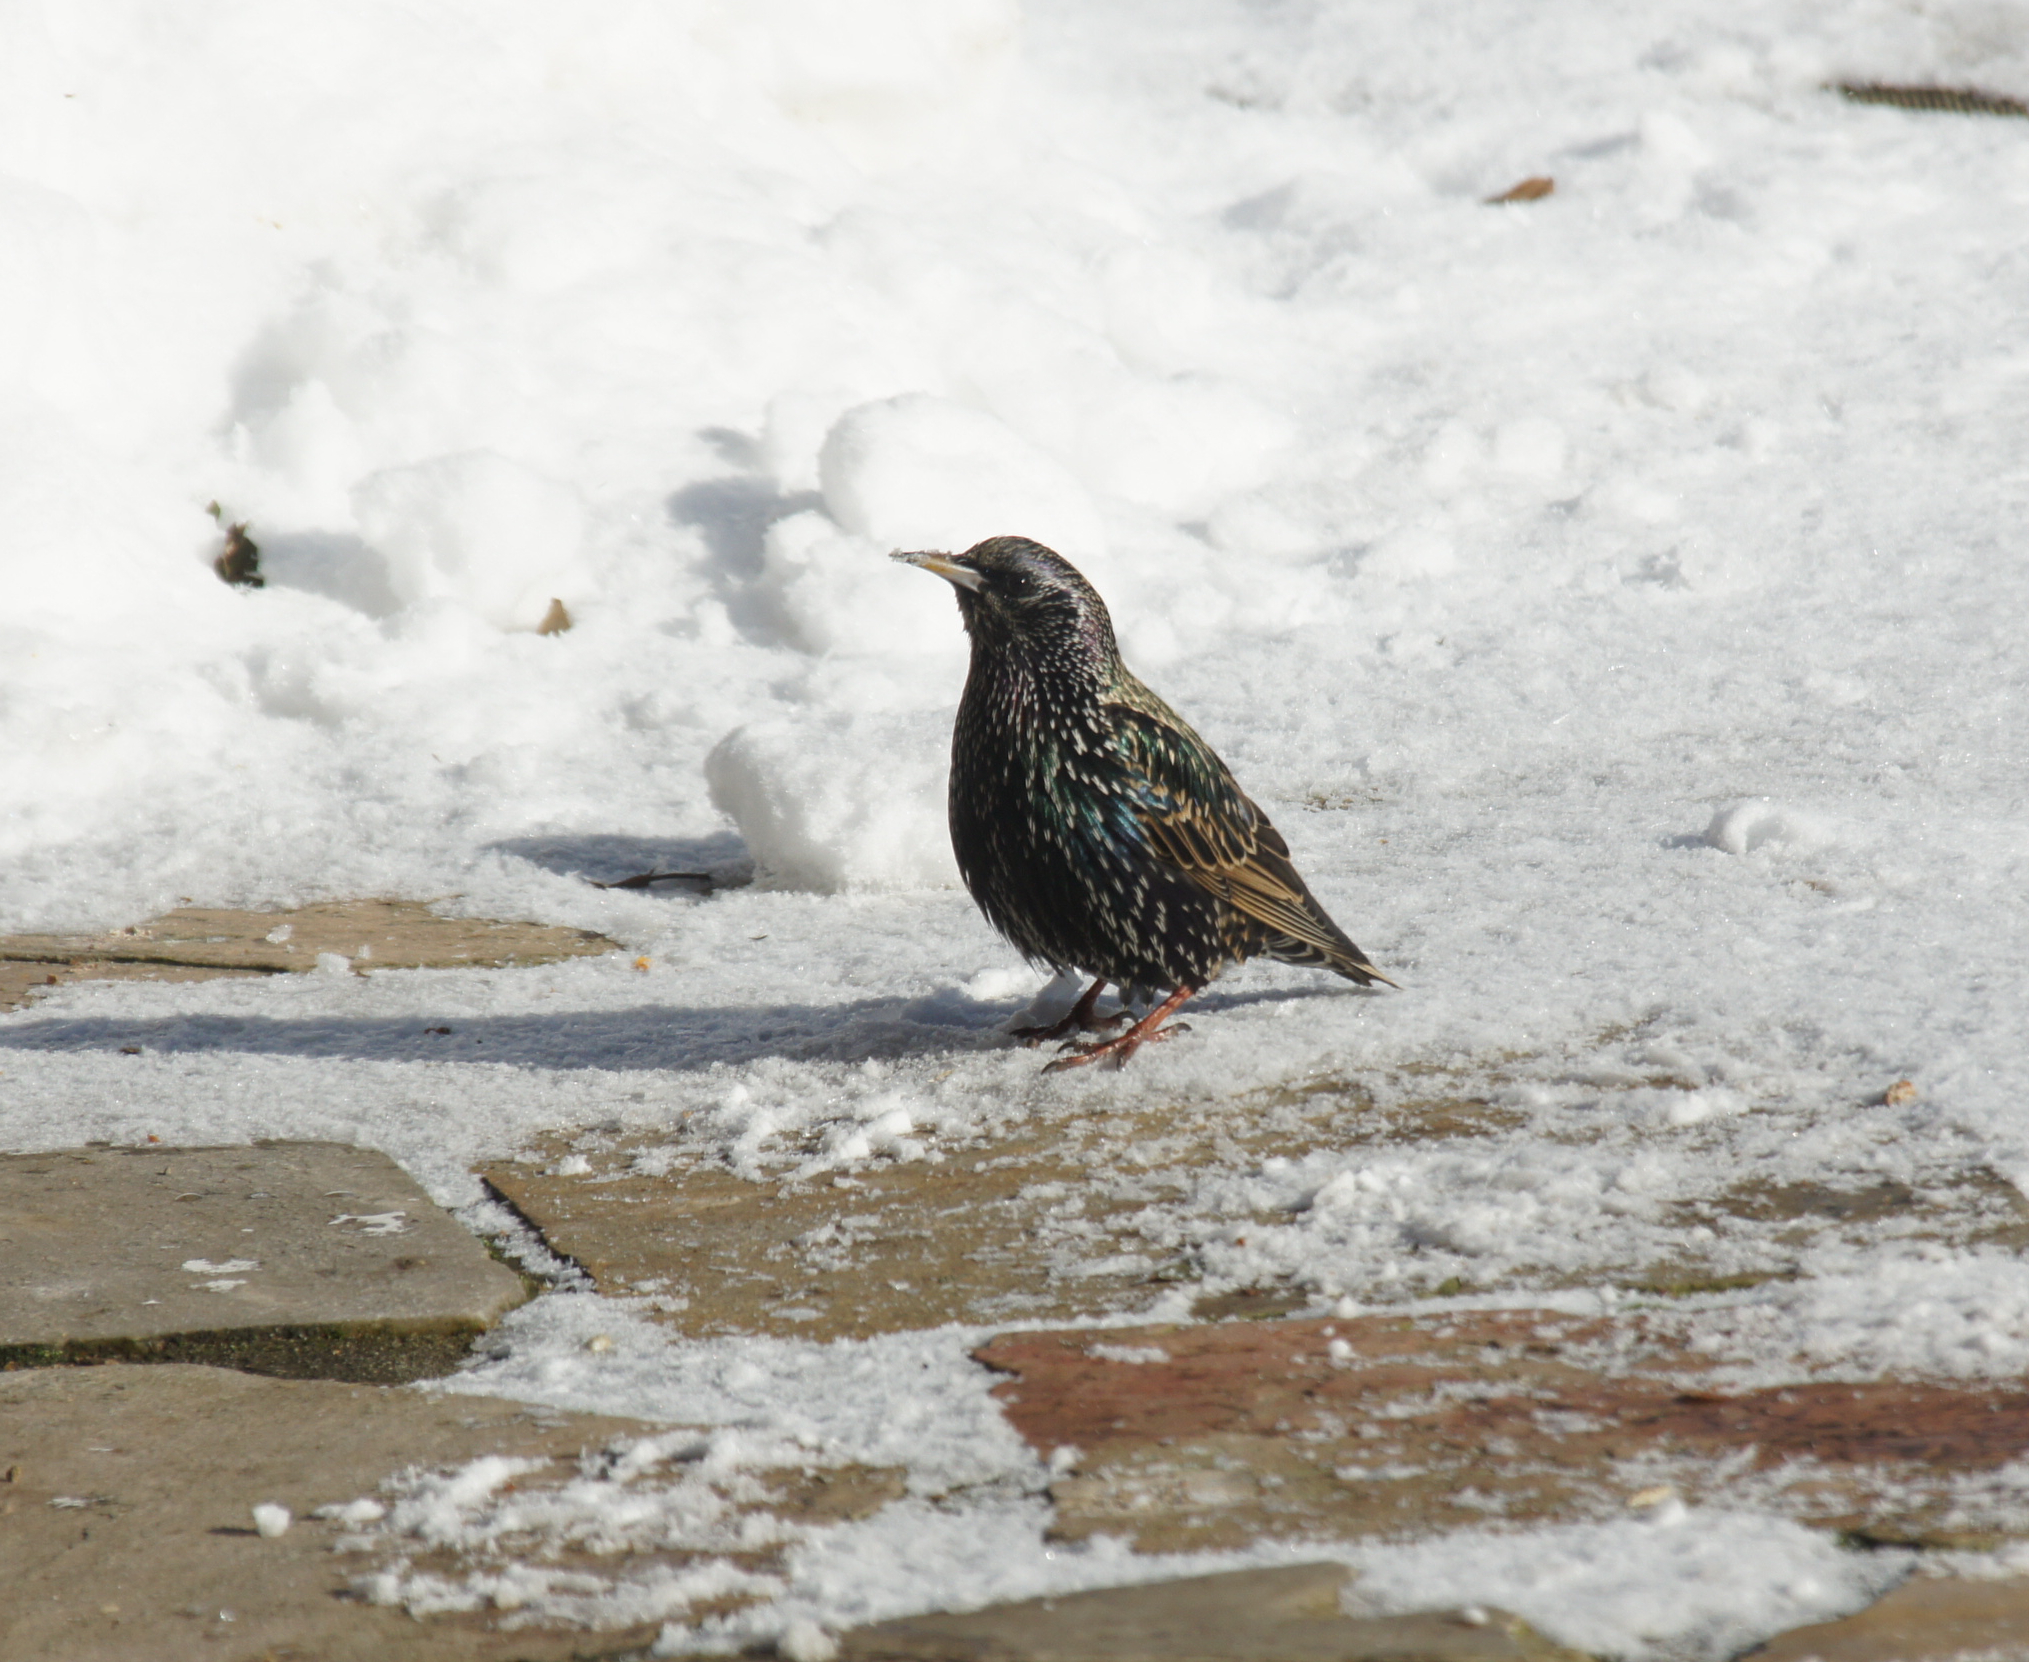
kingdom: Animalia
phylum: Chordata
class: Aves
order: Passeriformes
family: Sturnidae
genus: Sturnus
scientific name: Sturnus vulgaris
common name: Common starling
